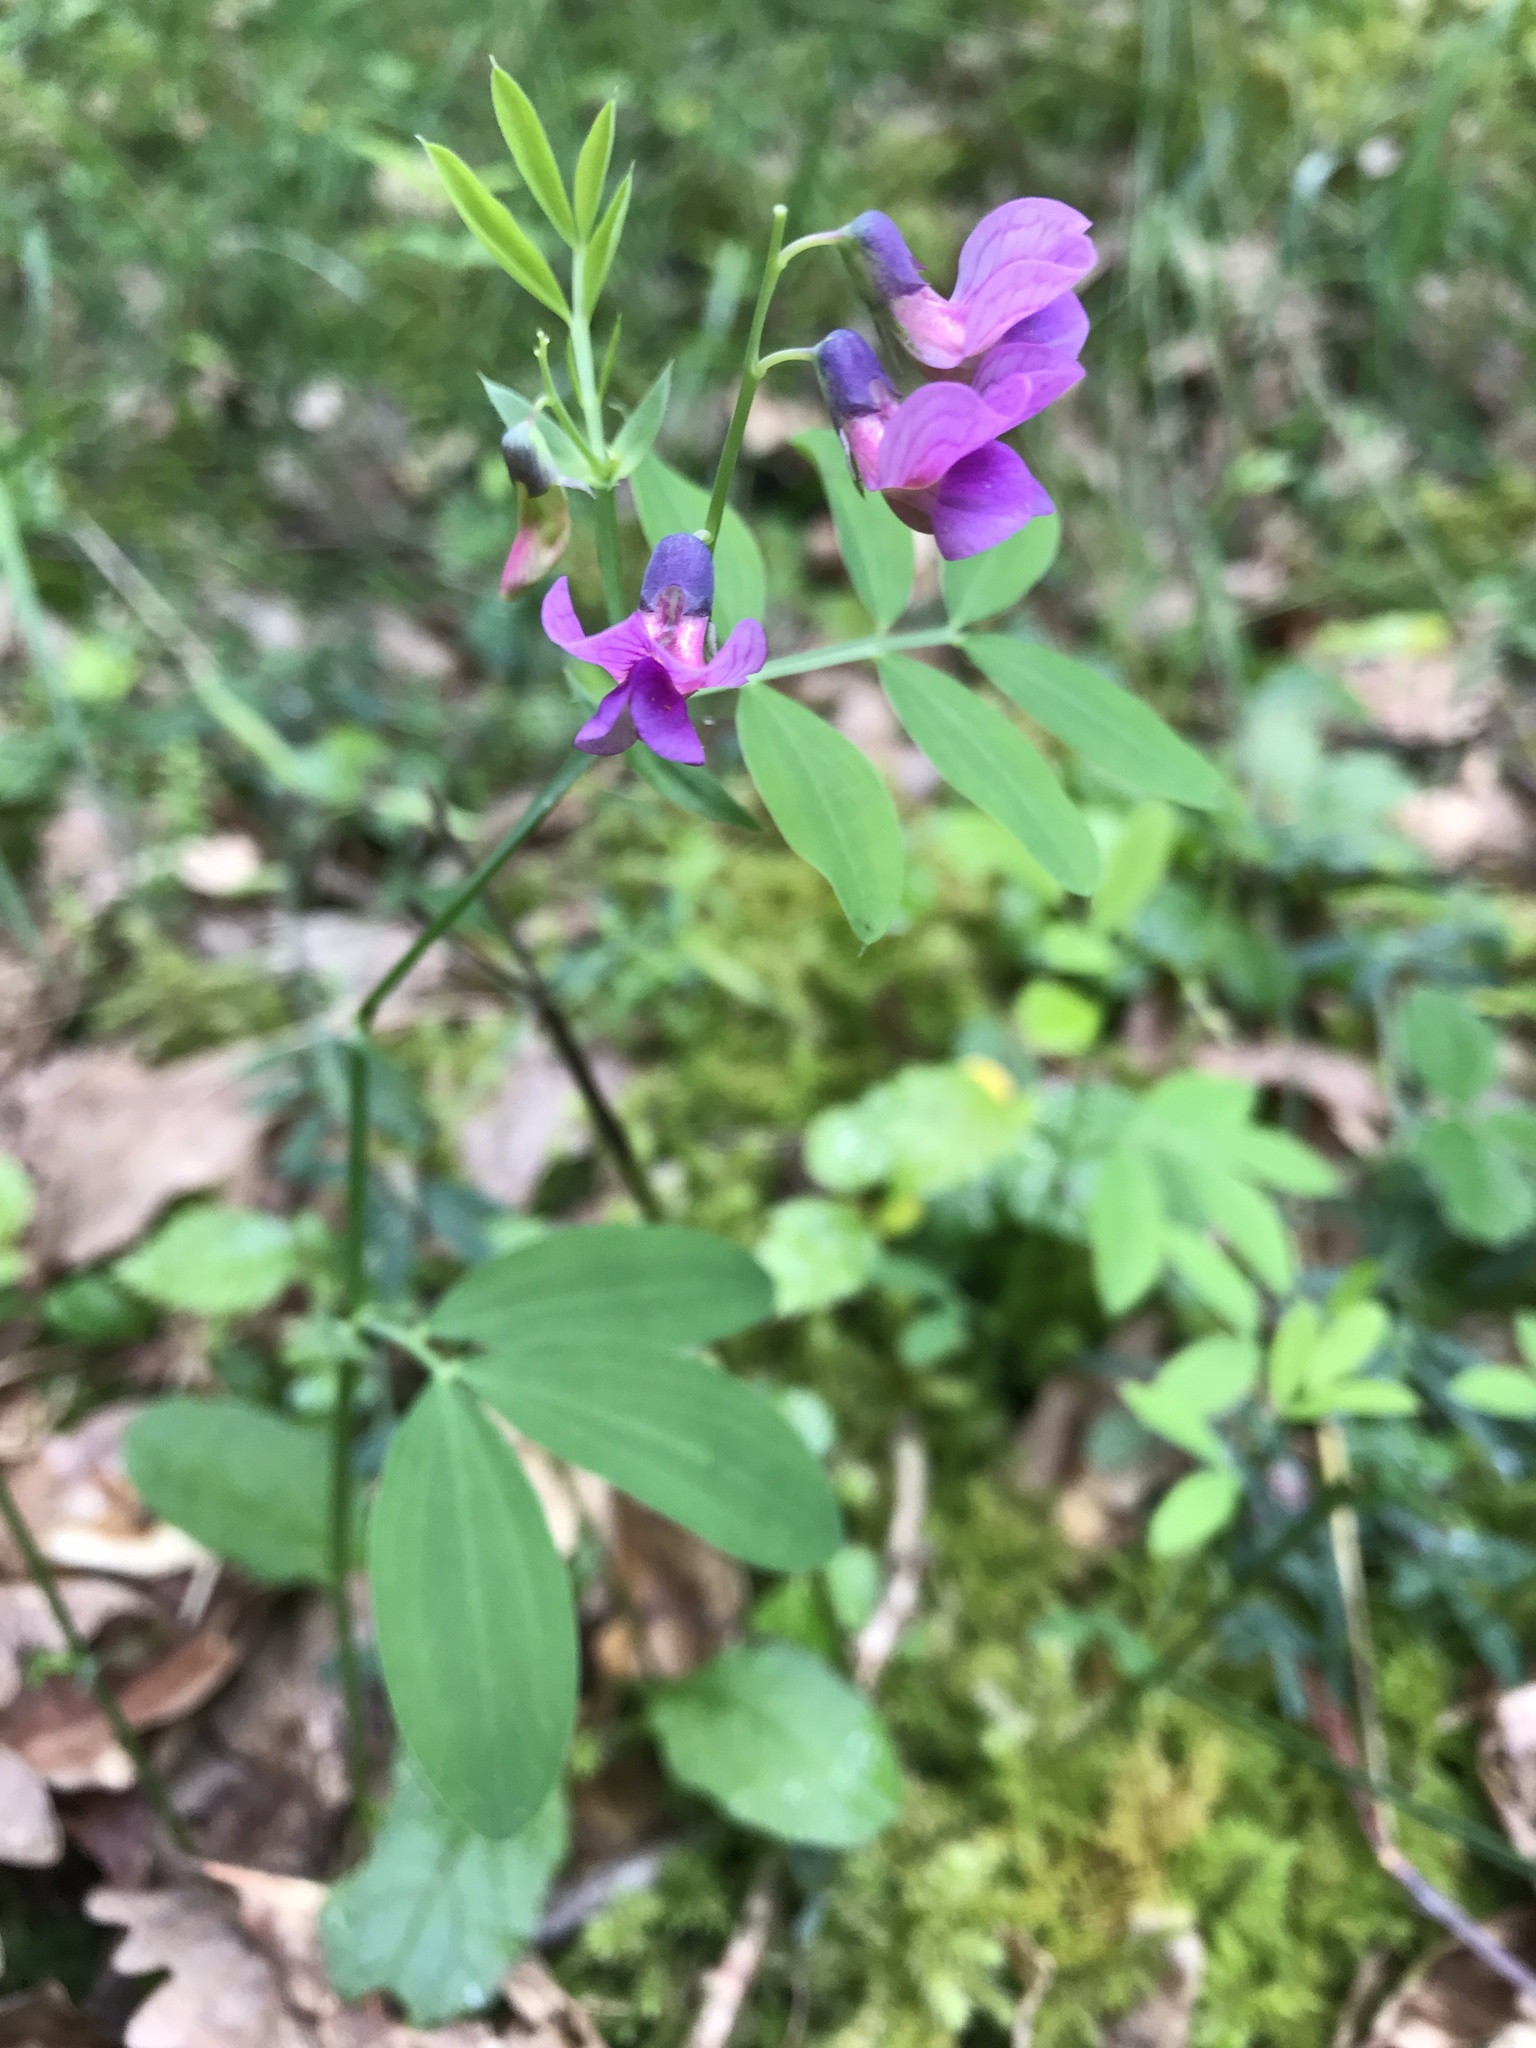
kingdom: Plantae
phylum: Tracheophyta
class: Magnoliopsida
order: Fabales
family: Fabaceae
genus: Lathyrus
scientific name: Lathyrus linifolius
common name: Bitter-vetch
